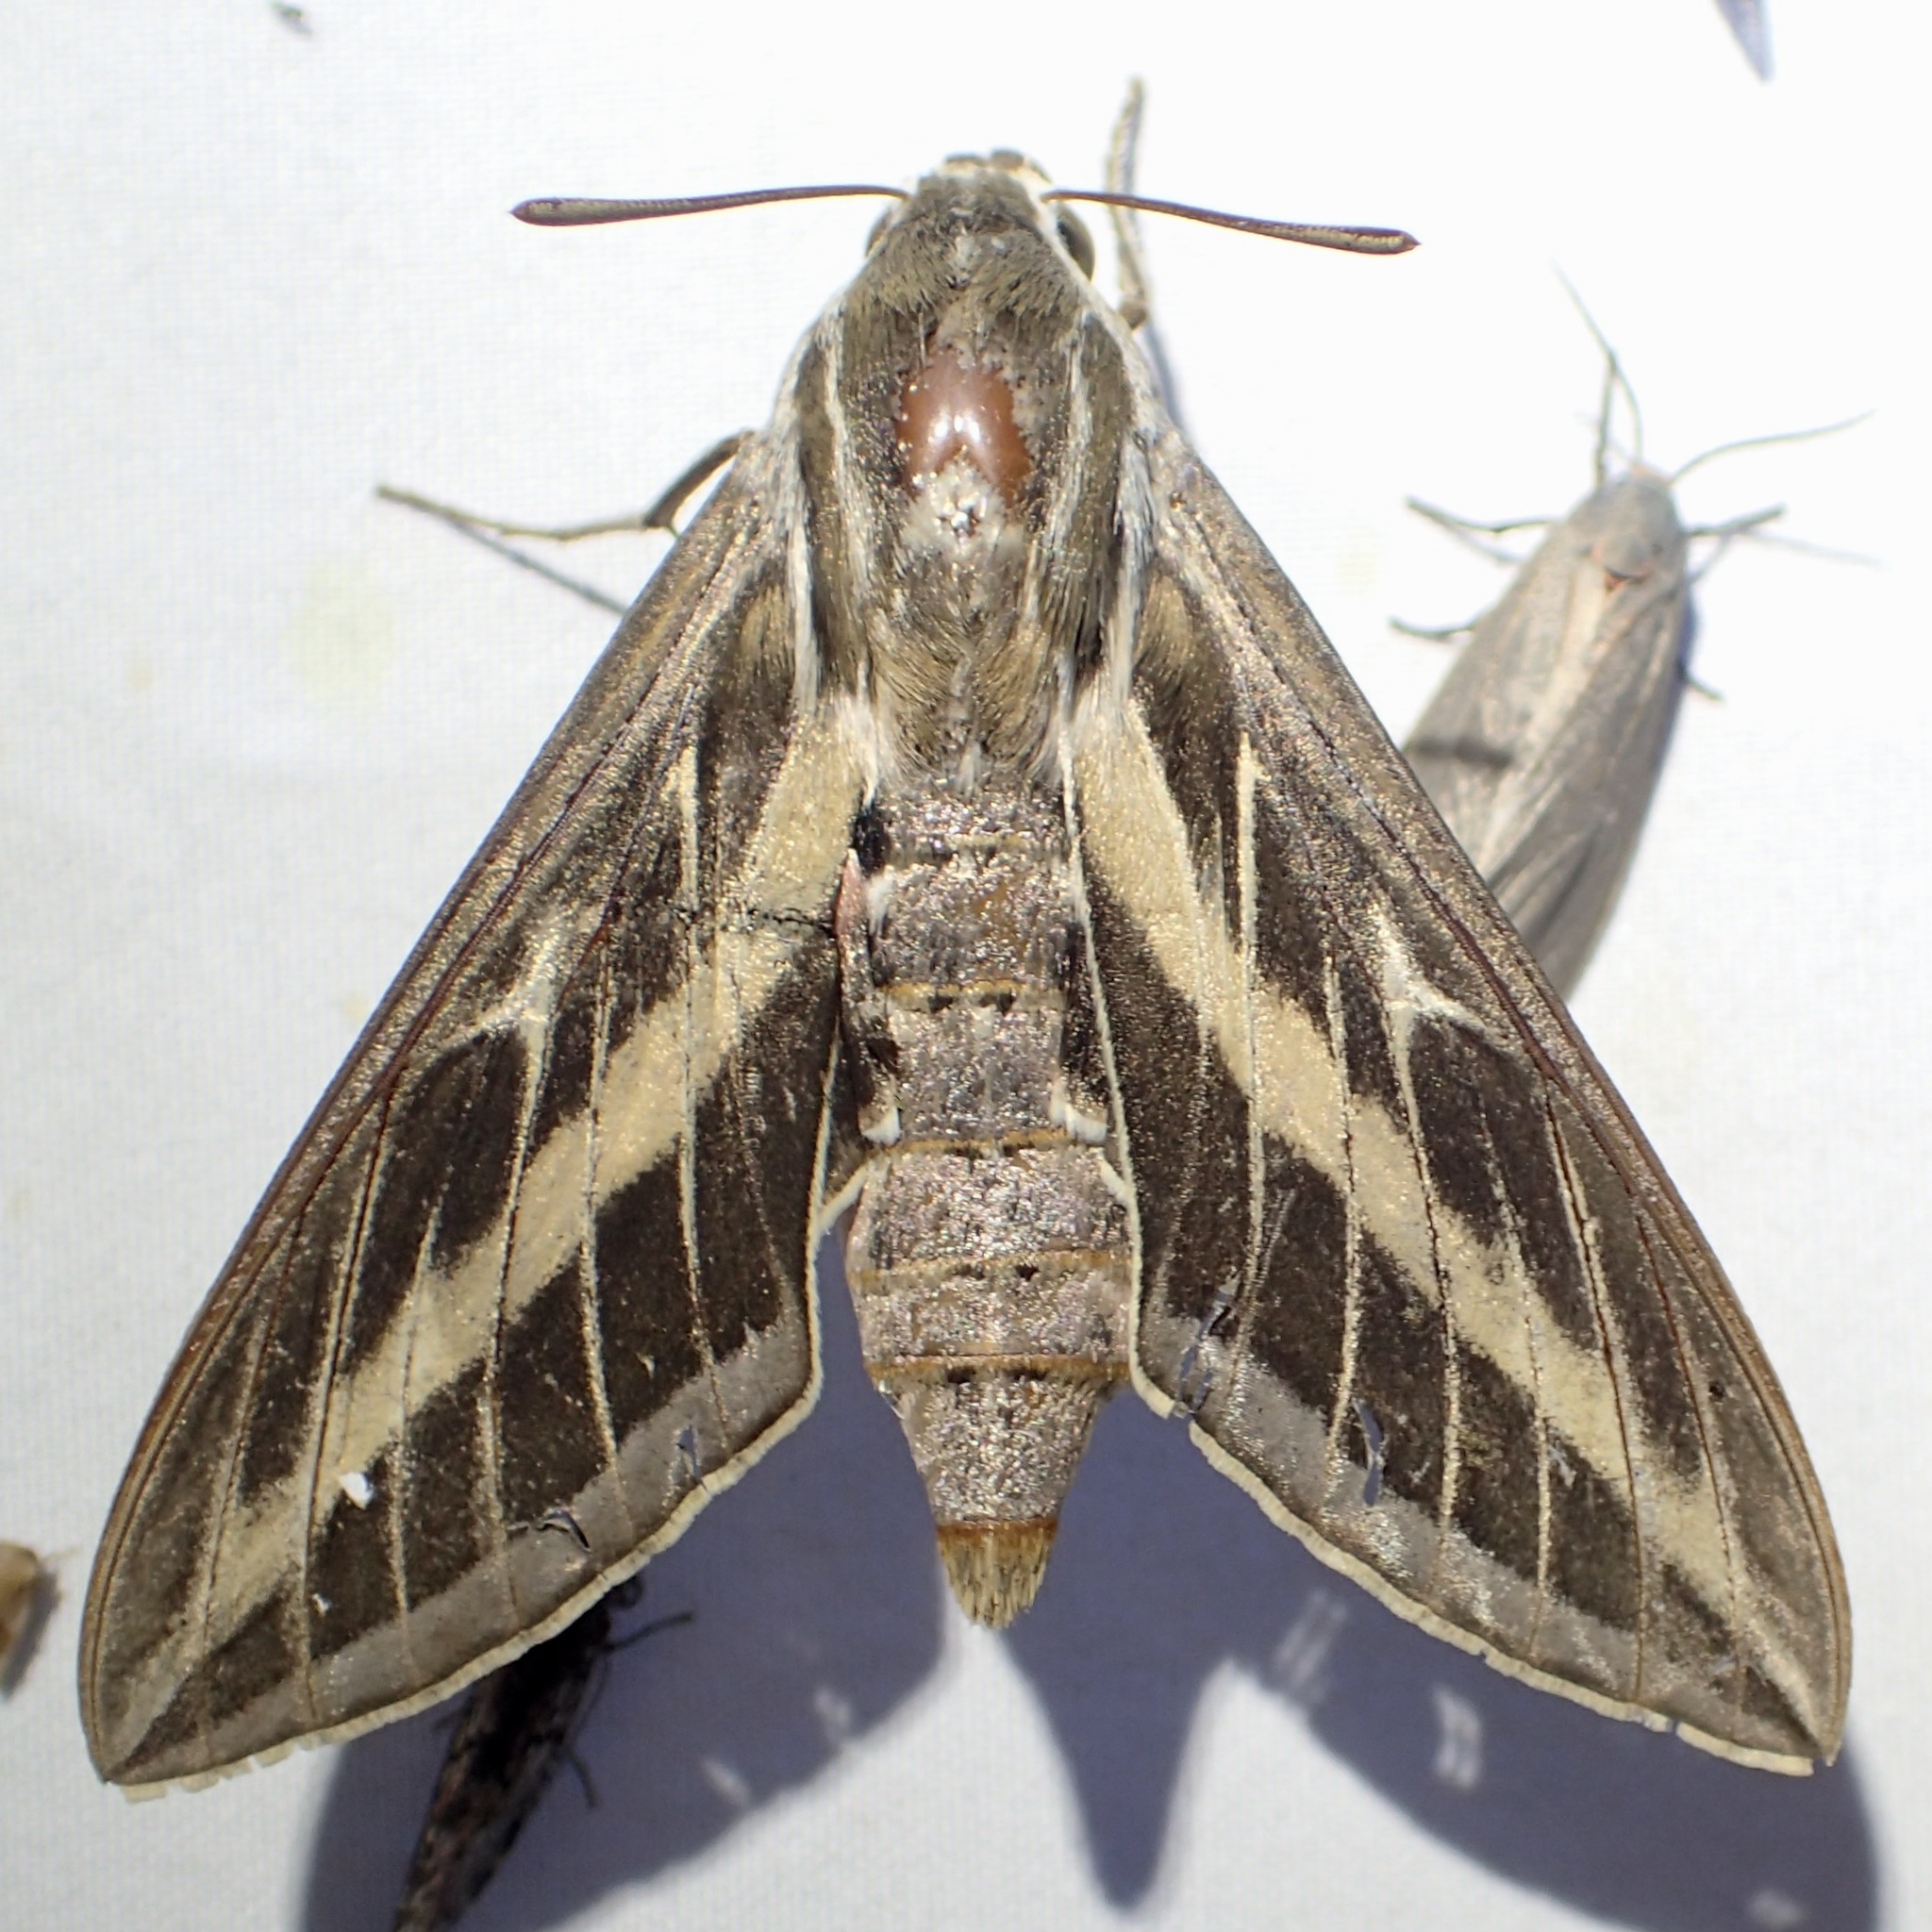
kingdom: Animalia
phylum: Arthropoda
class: Insecta
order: Lepidoptera
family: Sphingidae
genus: Hyles
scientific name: Hyles lineata
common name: White-lined sphinx
